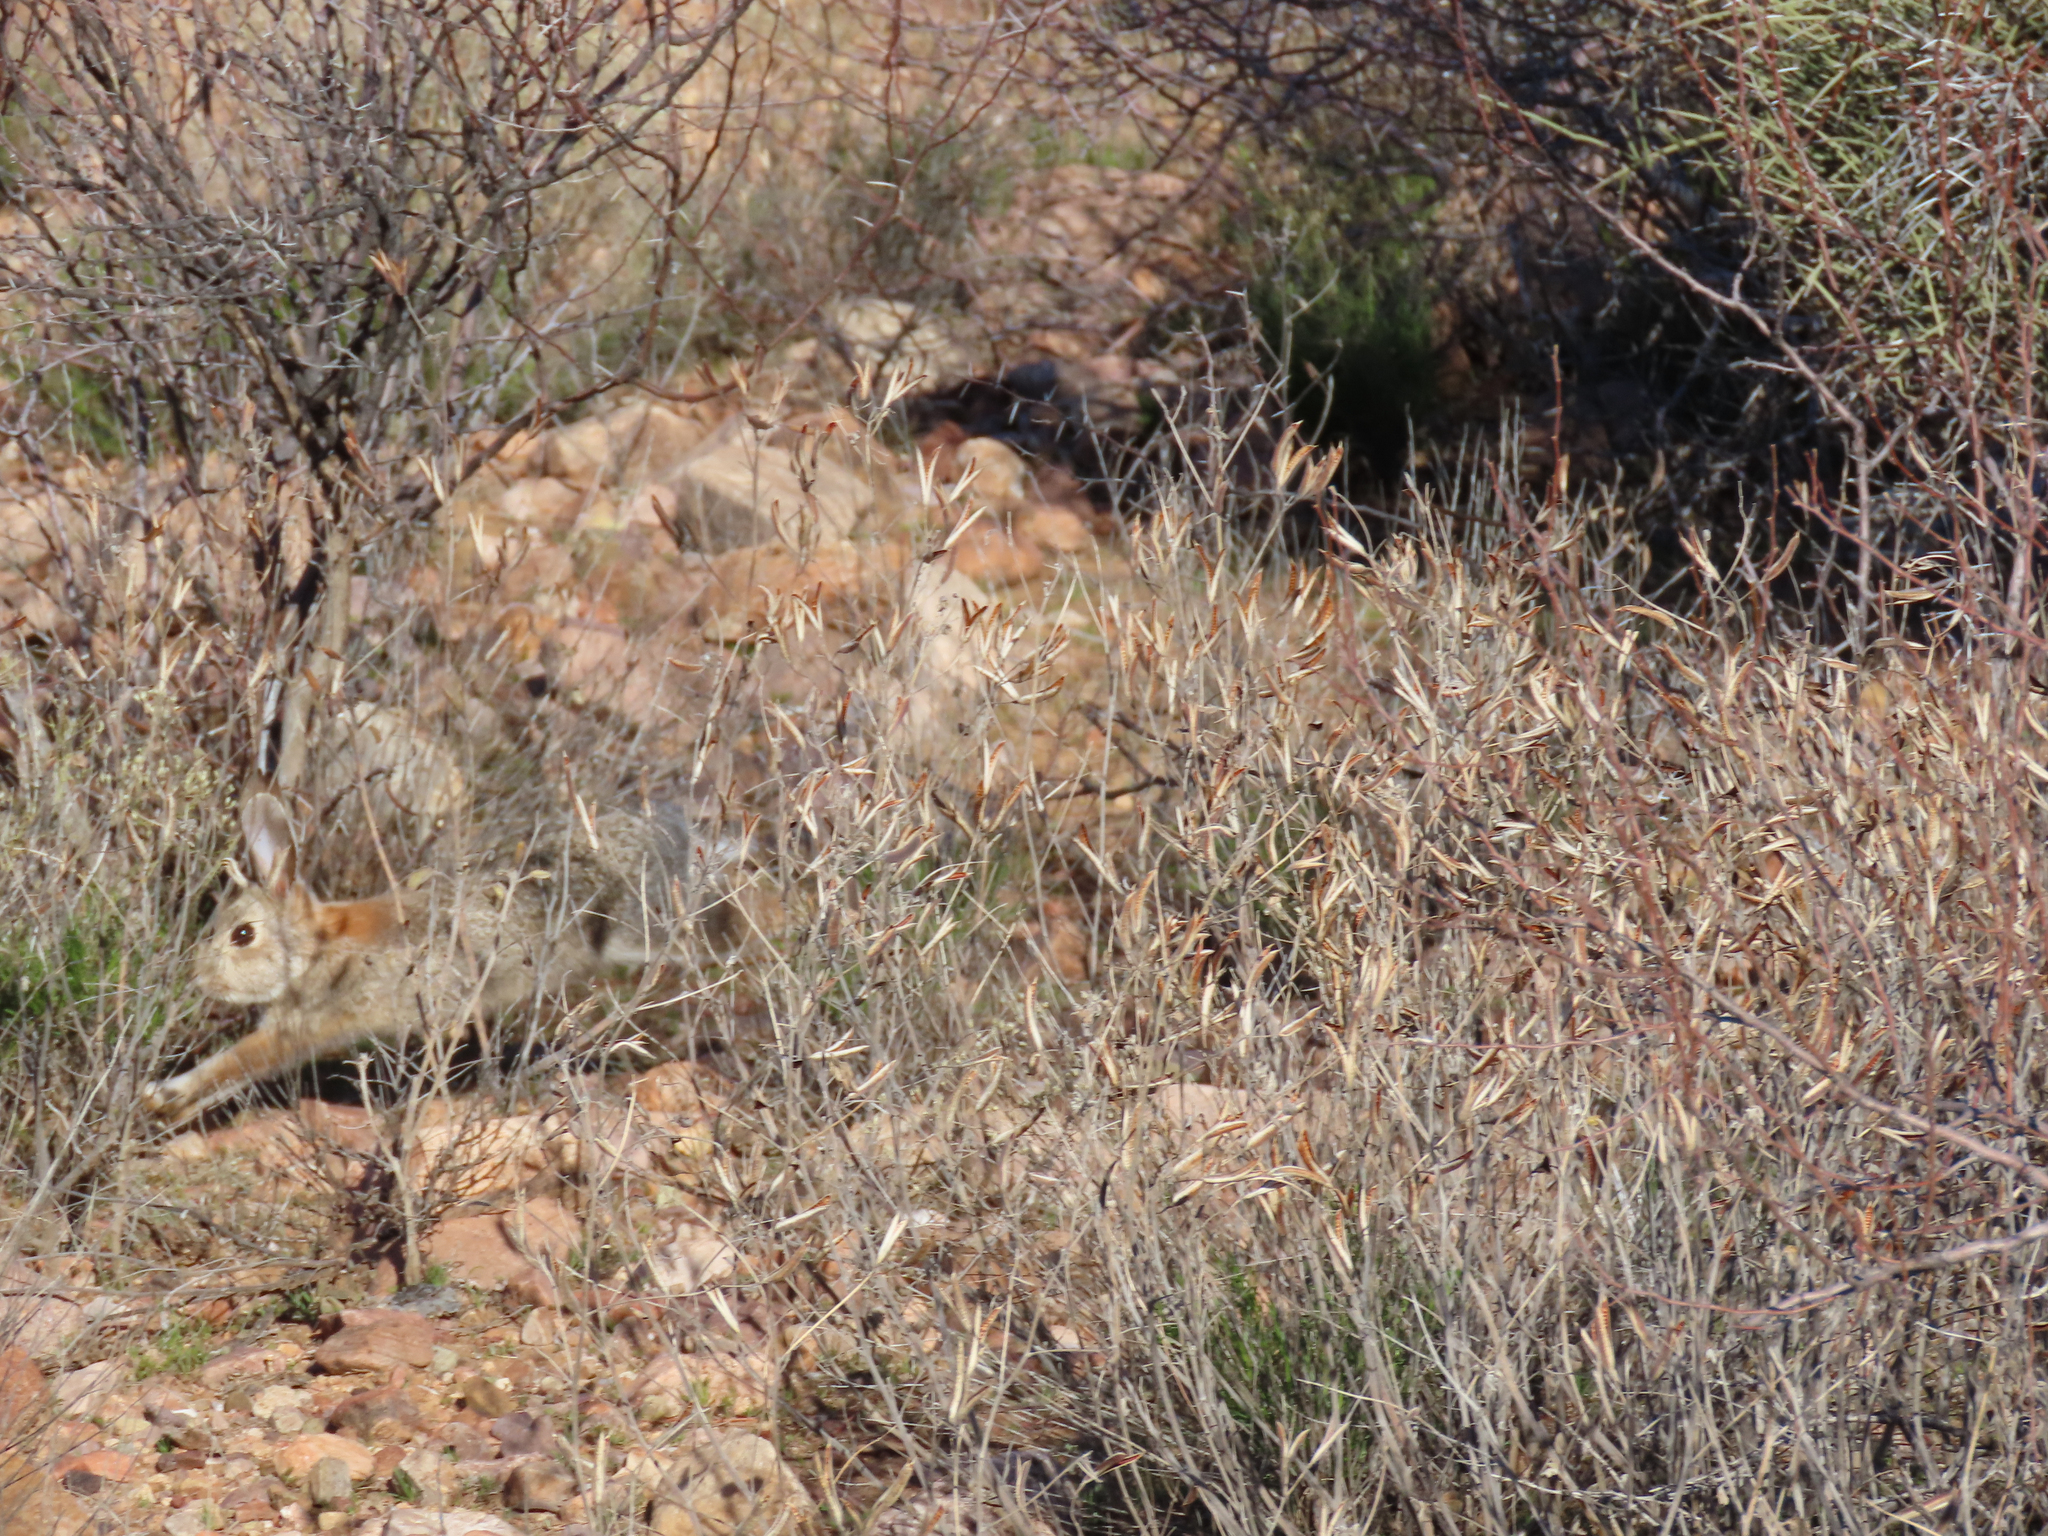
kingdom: Animalia
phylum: Chordata
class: Mammalia
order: Lagomorpha
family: Leporidae
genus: Sylvilagus
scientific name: Sylvilagus audubonii
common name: Desert cottontail
